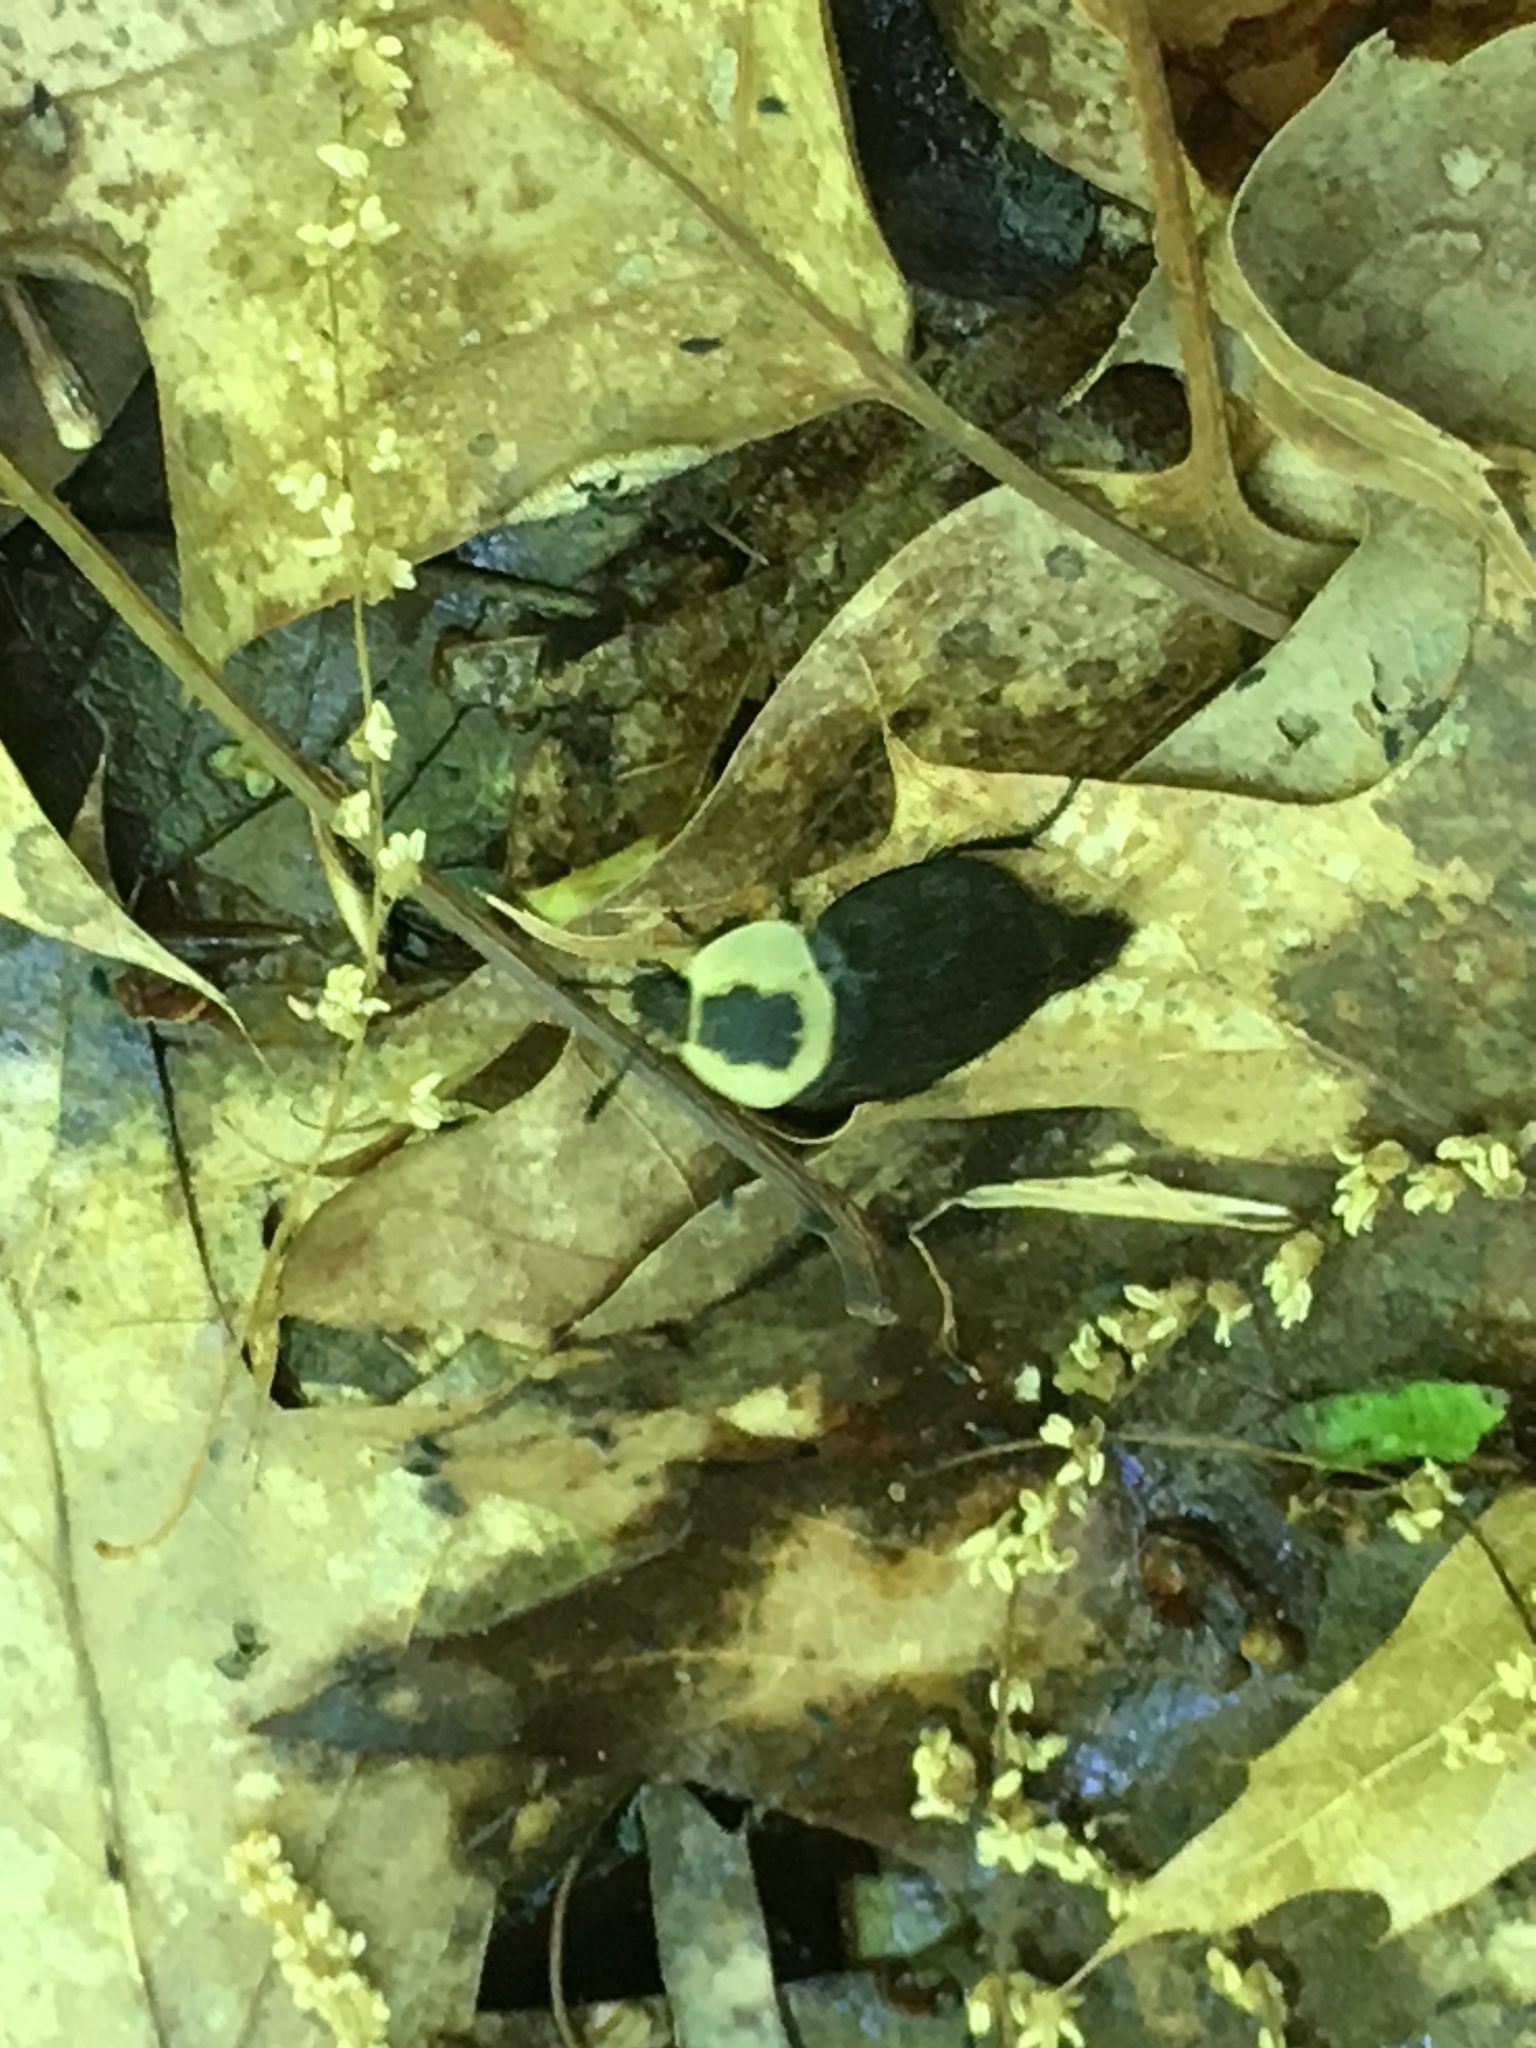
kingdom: Animalia
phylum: Arthropoda
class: Insecta
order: Coleoptera
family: Staphylinidae
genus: Necrophila
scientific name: Necrophila americana
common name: American carrion beetle
